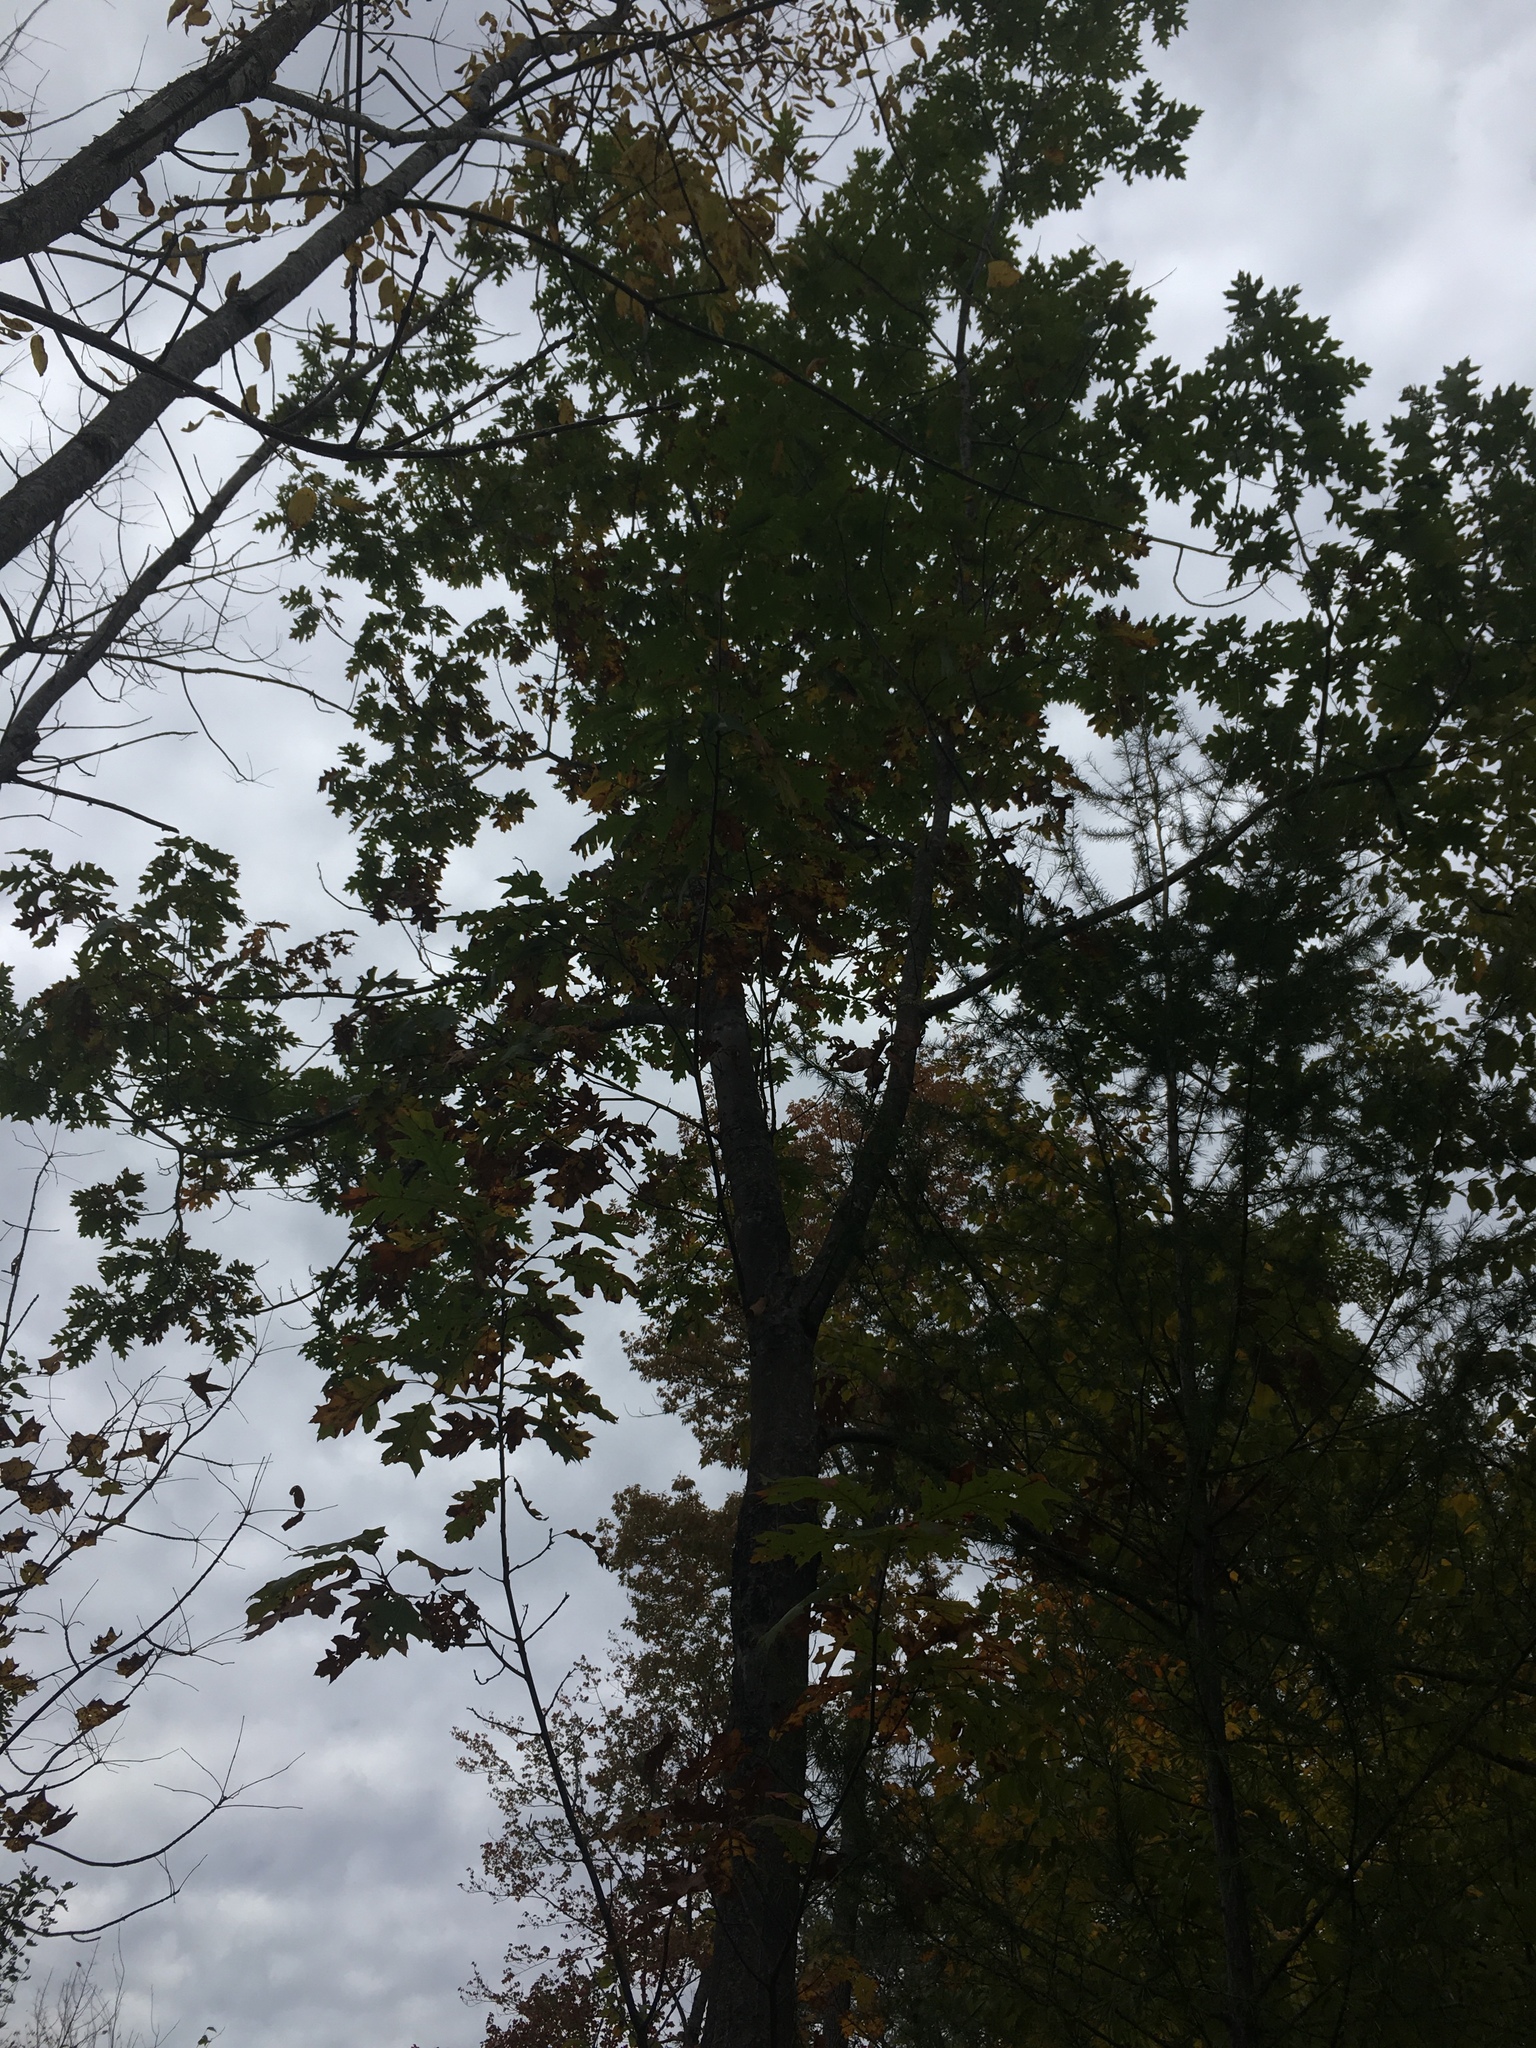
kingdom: Plantae
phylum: Tracheophyta
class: Magnoliopsida
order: Fagales
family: Fagaceae
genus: Quercus
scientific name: Quercus rubra
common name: Red oak
